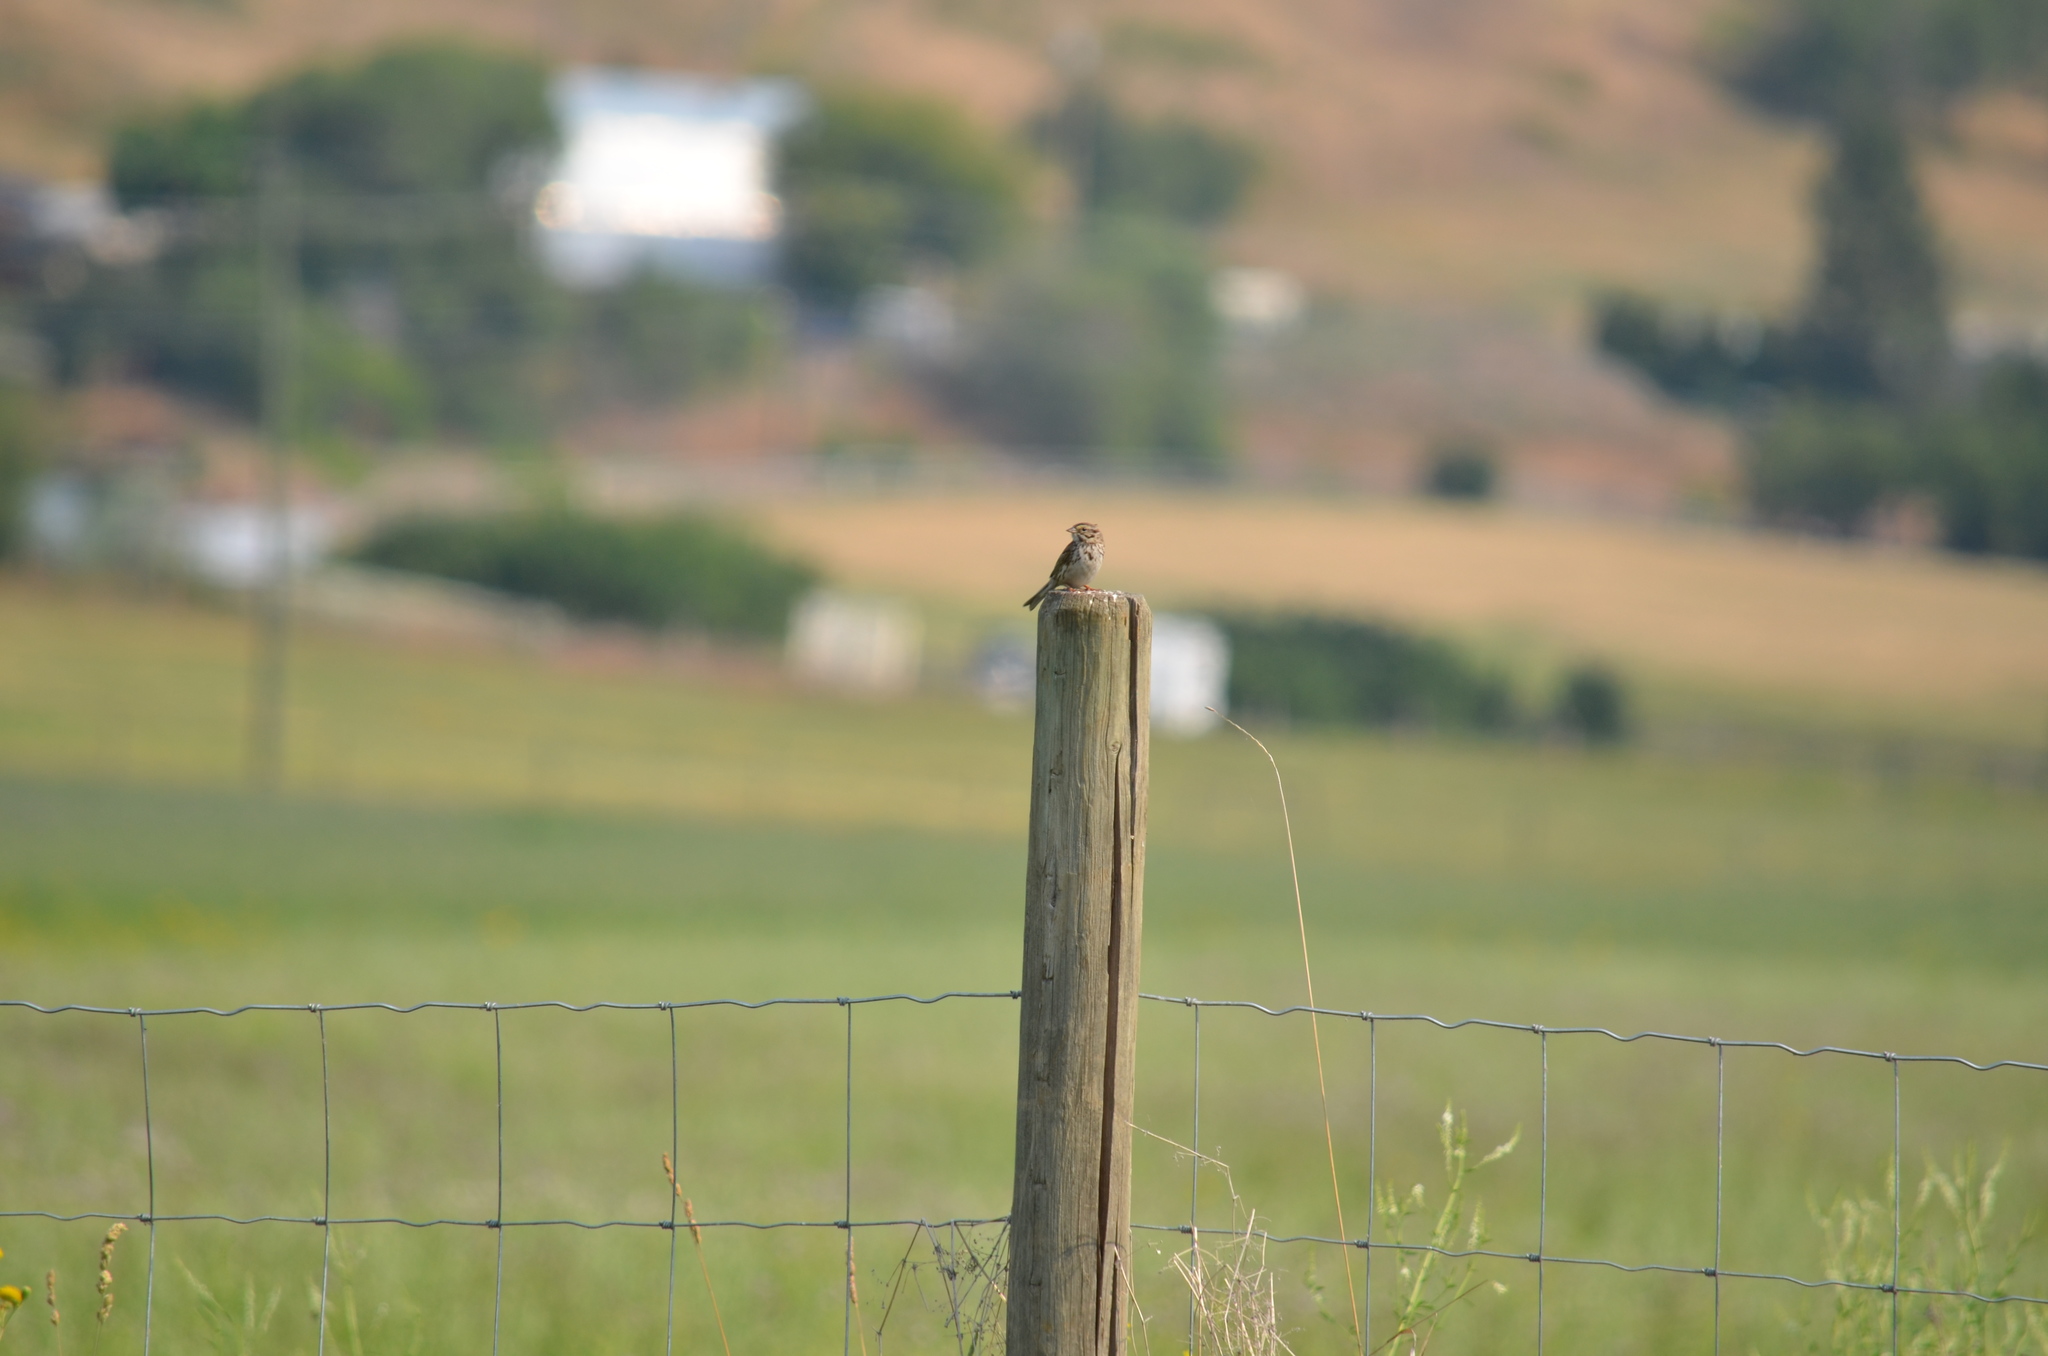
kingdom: Animalia
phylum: Chordata
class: Aves
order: Passeriformes
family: Passerellidae
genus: Passerculus
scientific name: Passerculus sandwichensis
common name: Savannah sparrow
